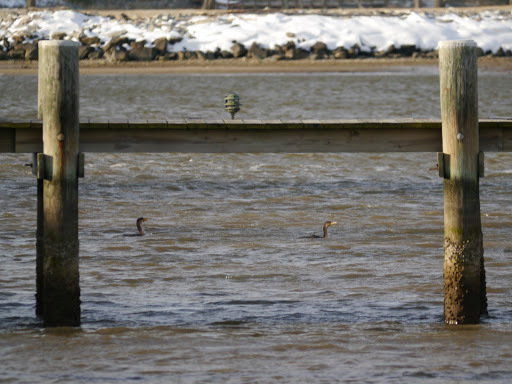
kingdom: Animalia
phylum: Chordata
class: Aves
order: Suliformes
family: Phalacrocoracidae
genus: Phalacrocorax
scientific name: Phalacrocorax auritus
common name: Double-crested cormorant
